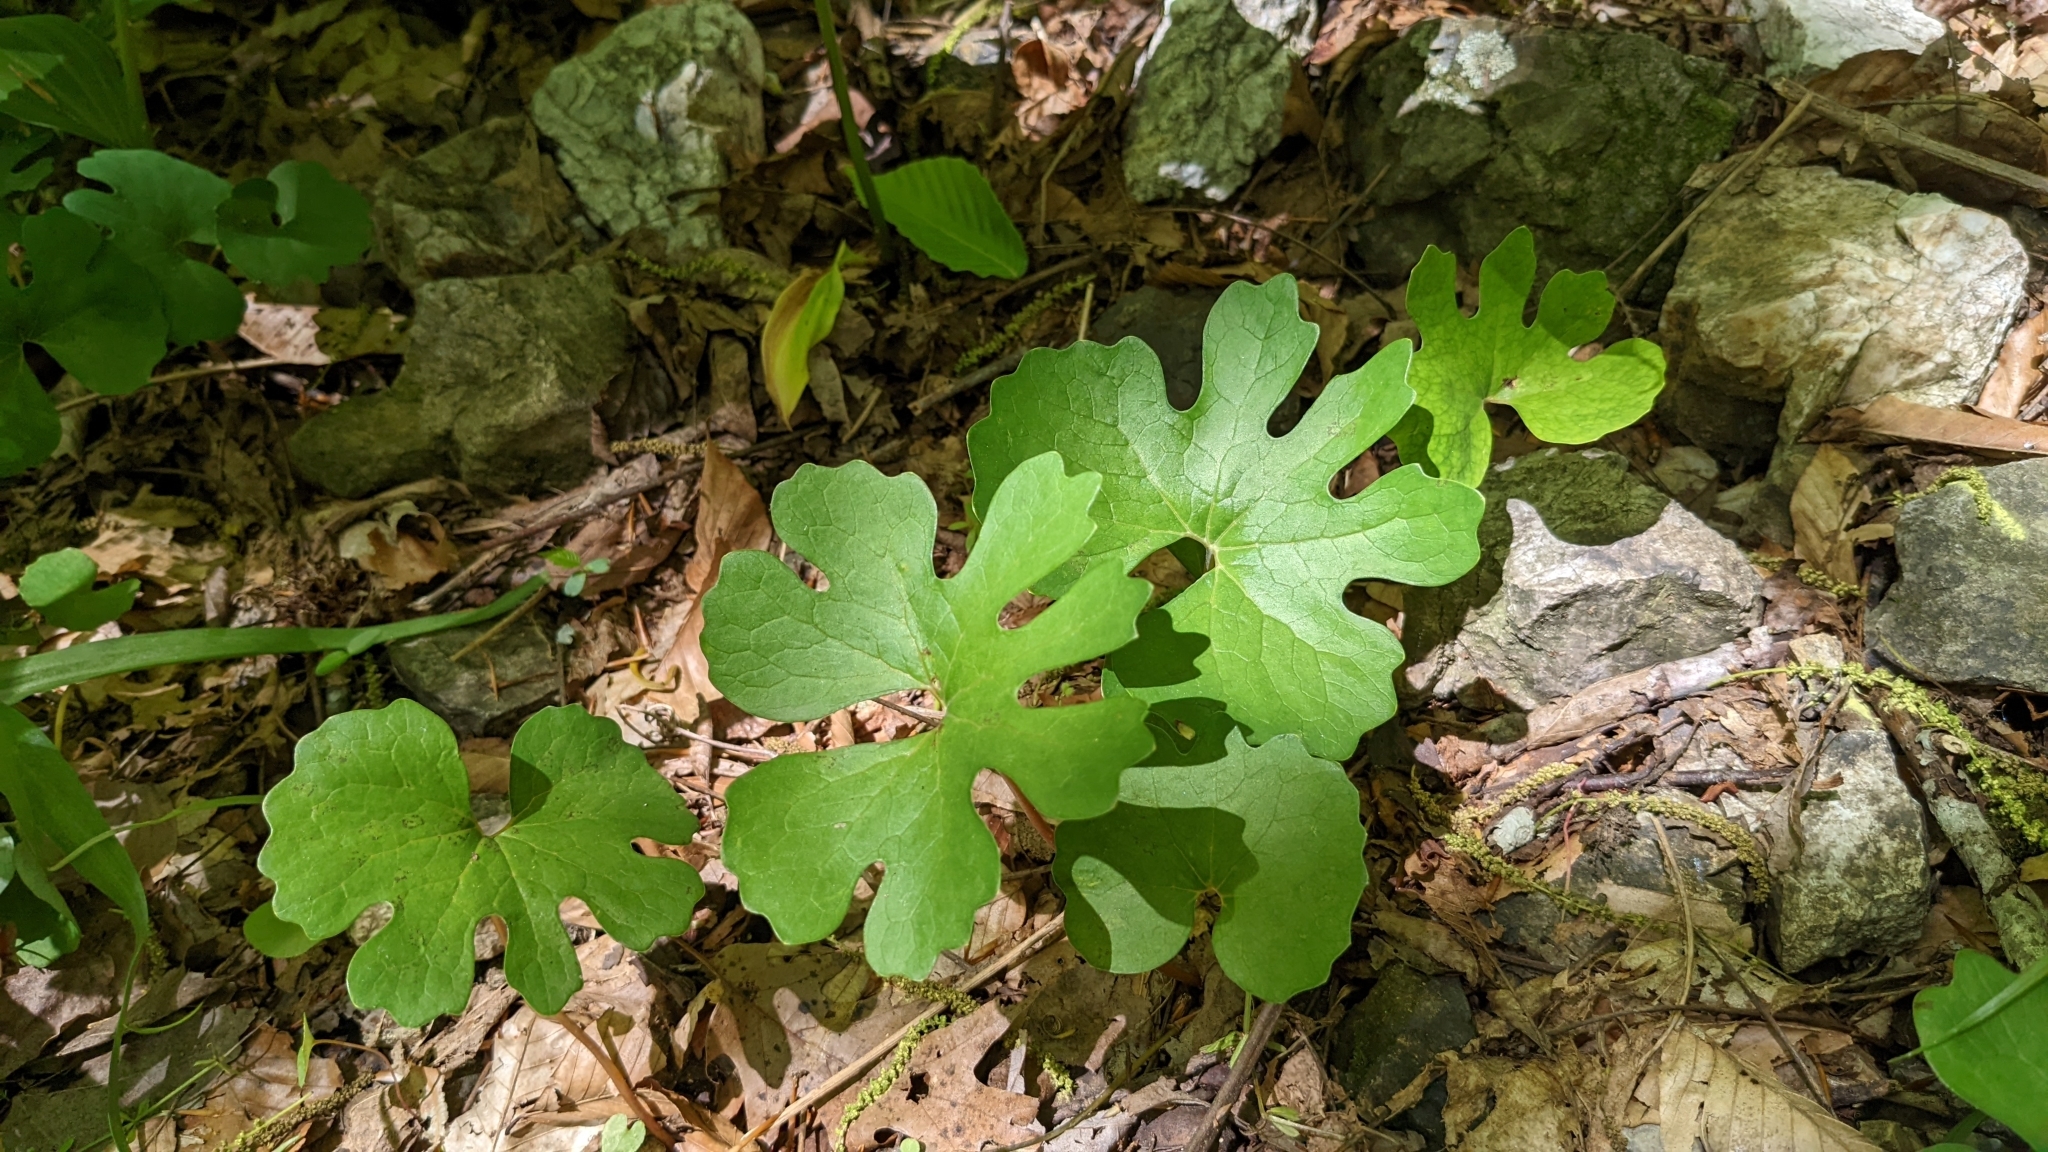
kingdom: Plantae
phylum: Tracheophyta
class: Magnoliopsida
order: Ranunculales
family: Papaveraceae
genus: Sanguinaria
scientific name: Sanguinaria canadensis
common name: Bloodroot
